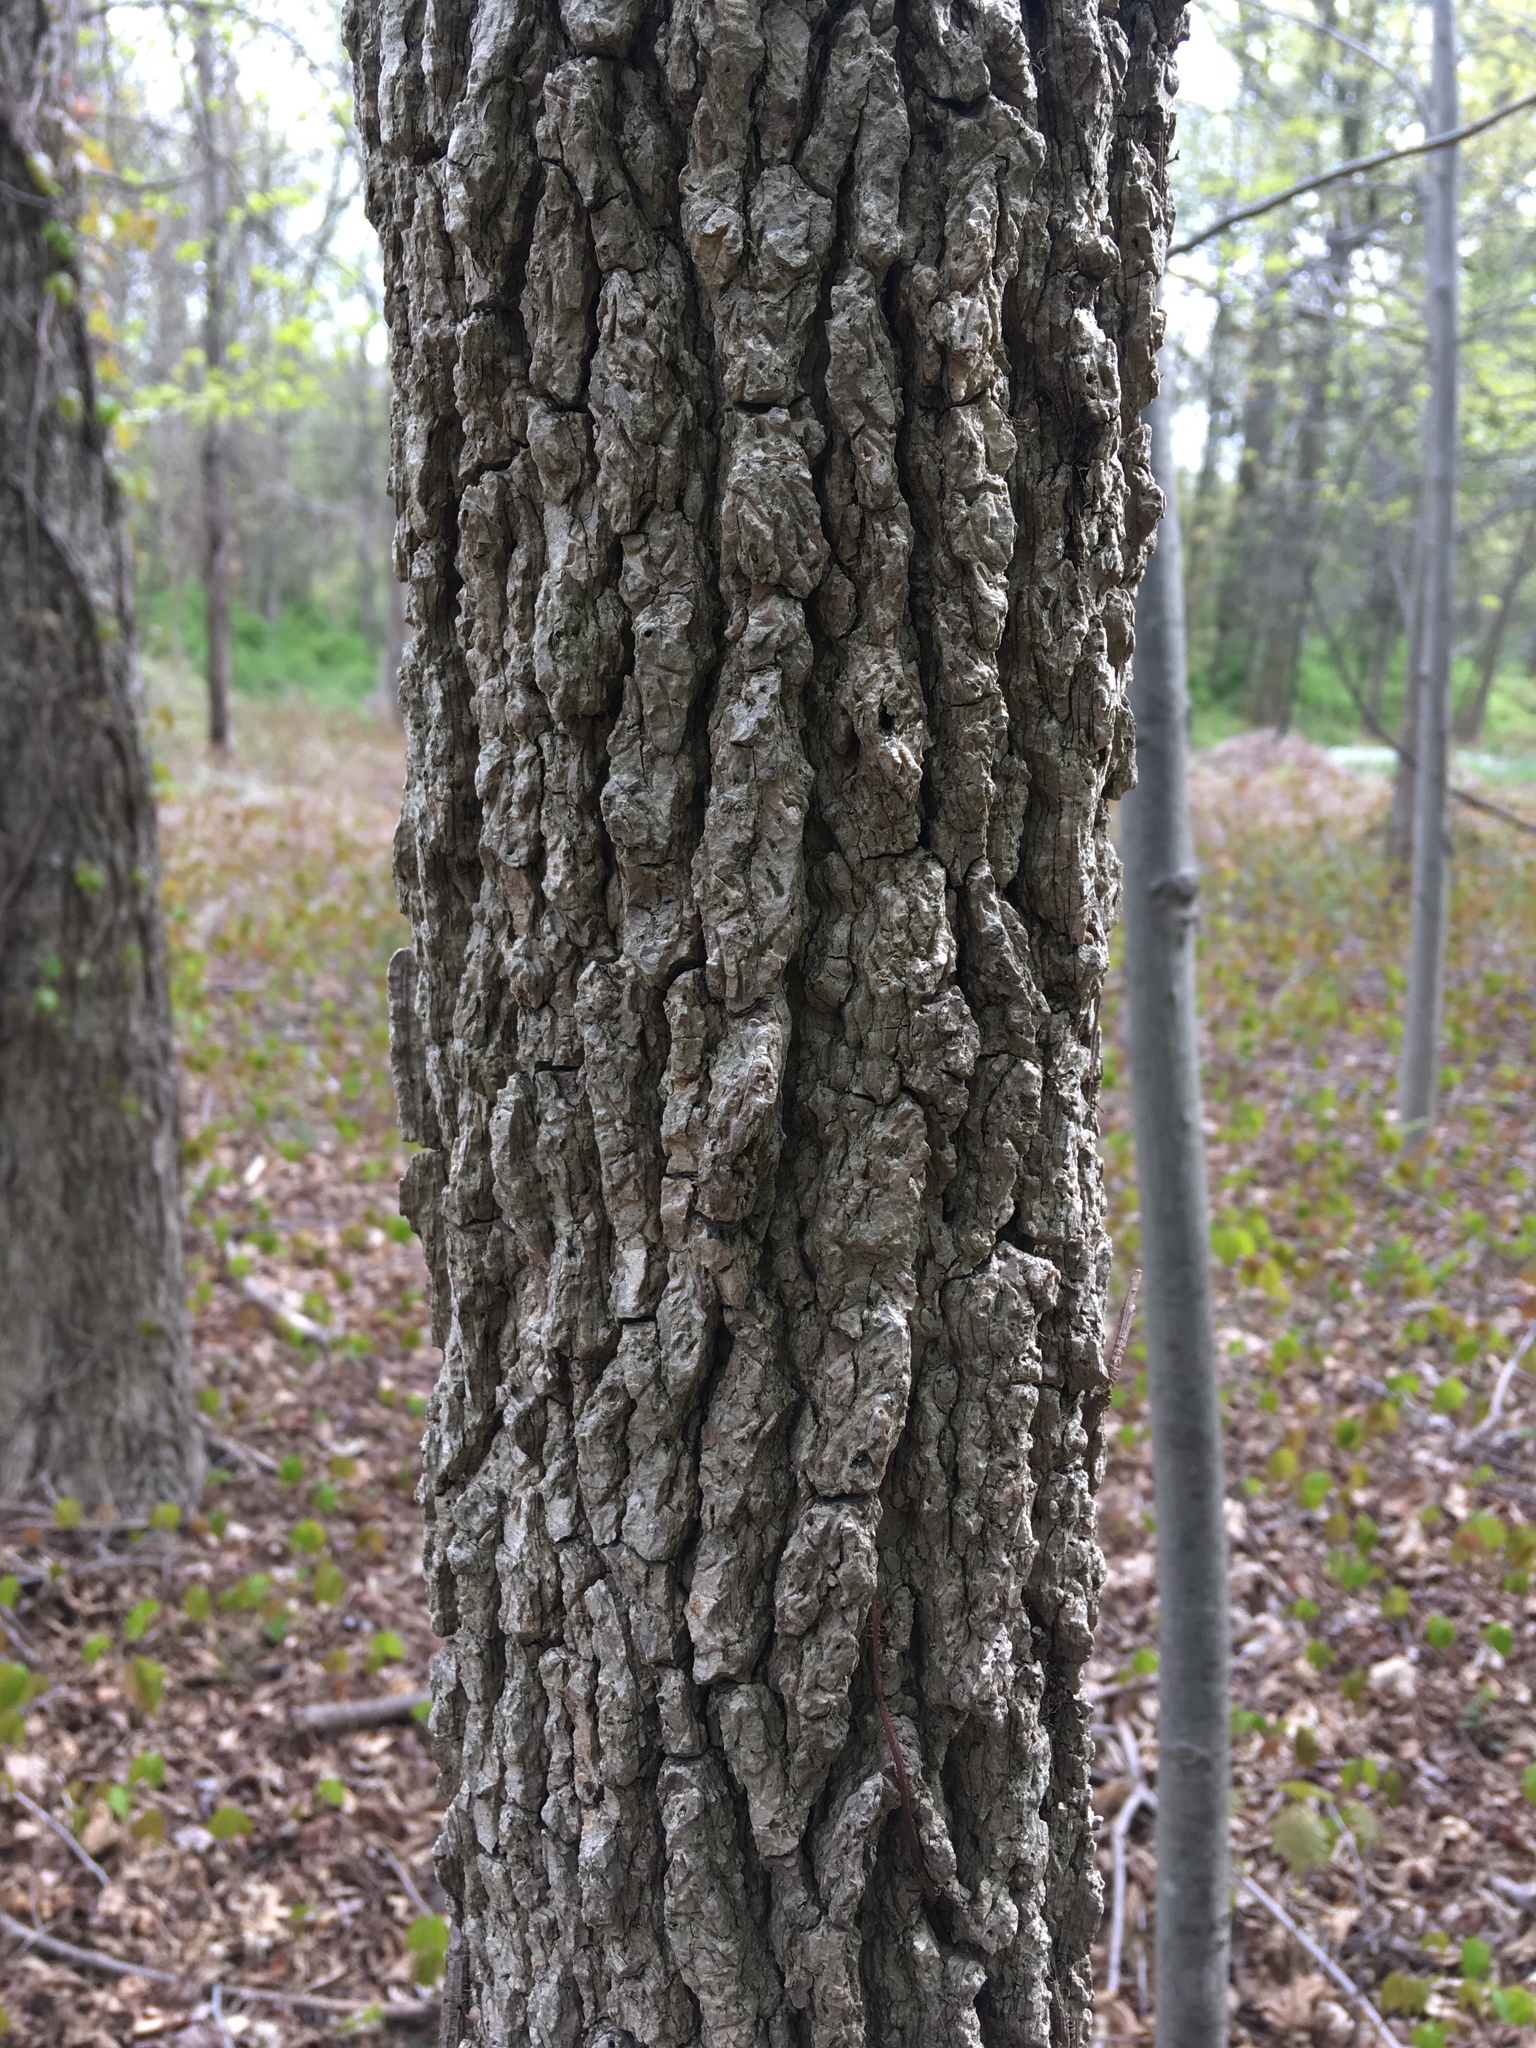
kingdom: Plantae
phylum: Tracheophyta
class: Magnoliopsida
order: Saxifragales
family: Altingiaceae
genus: Liquidambar
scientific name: Liquidambar styraciflua
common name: Sweet gum
